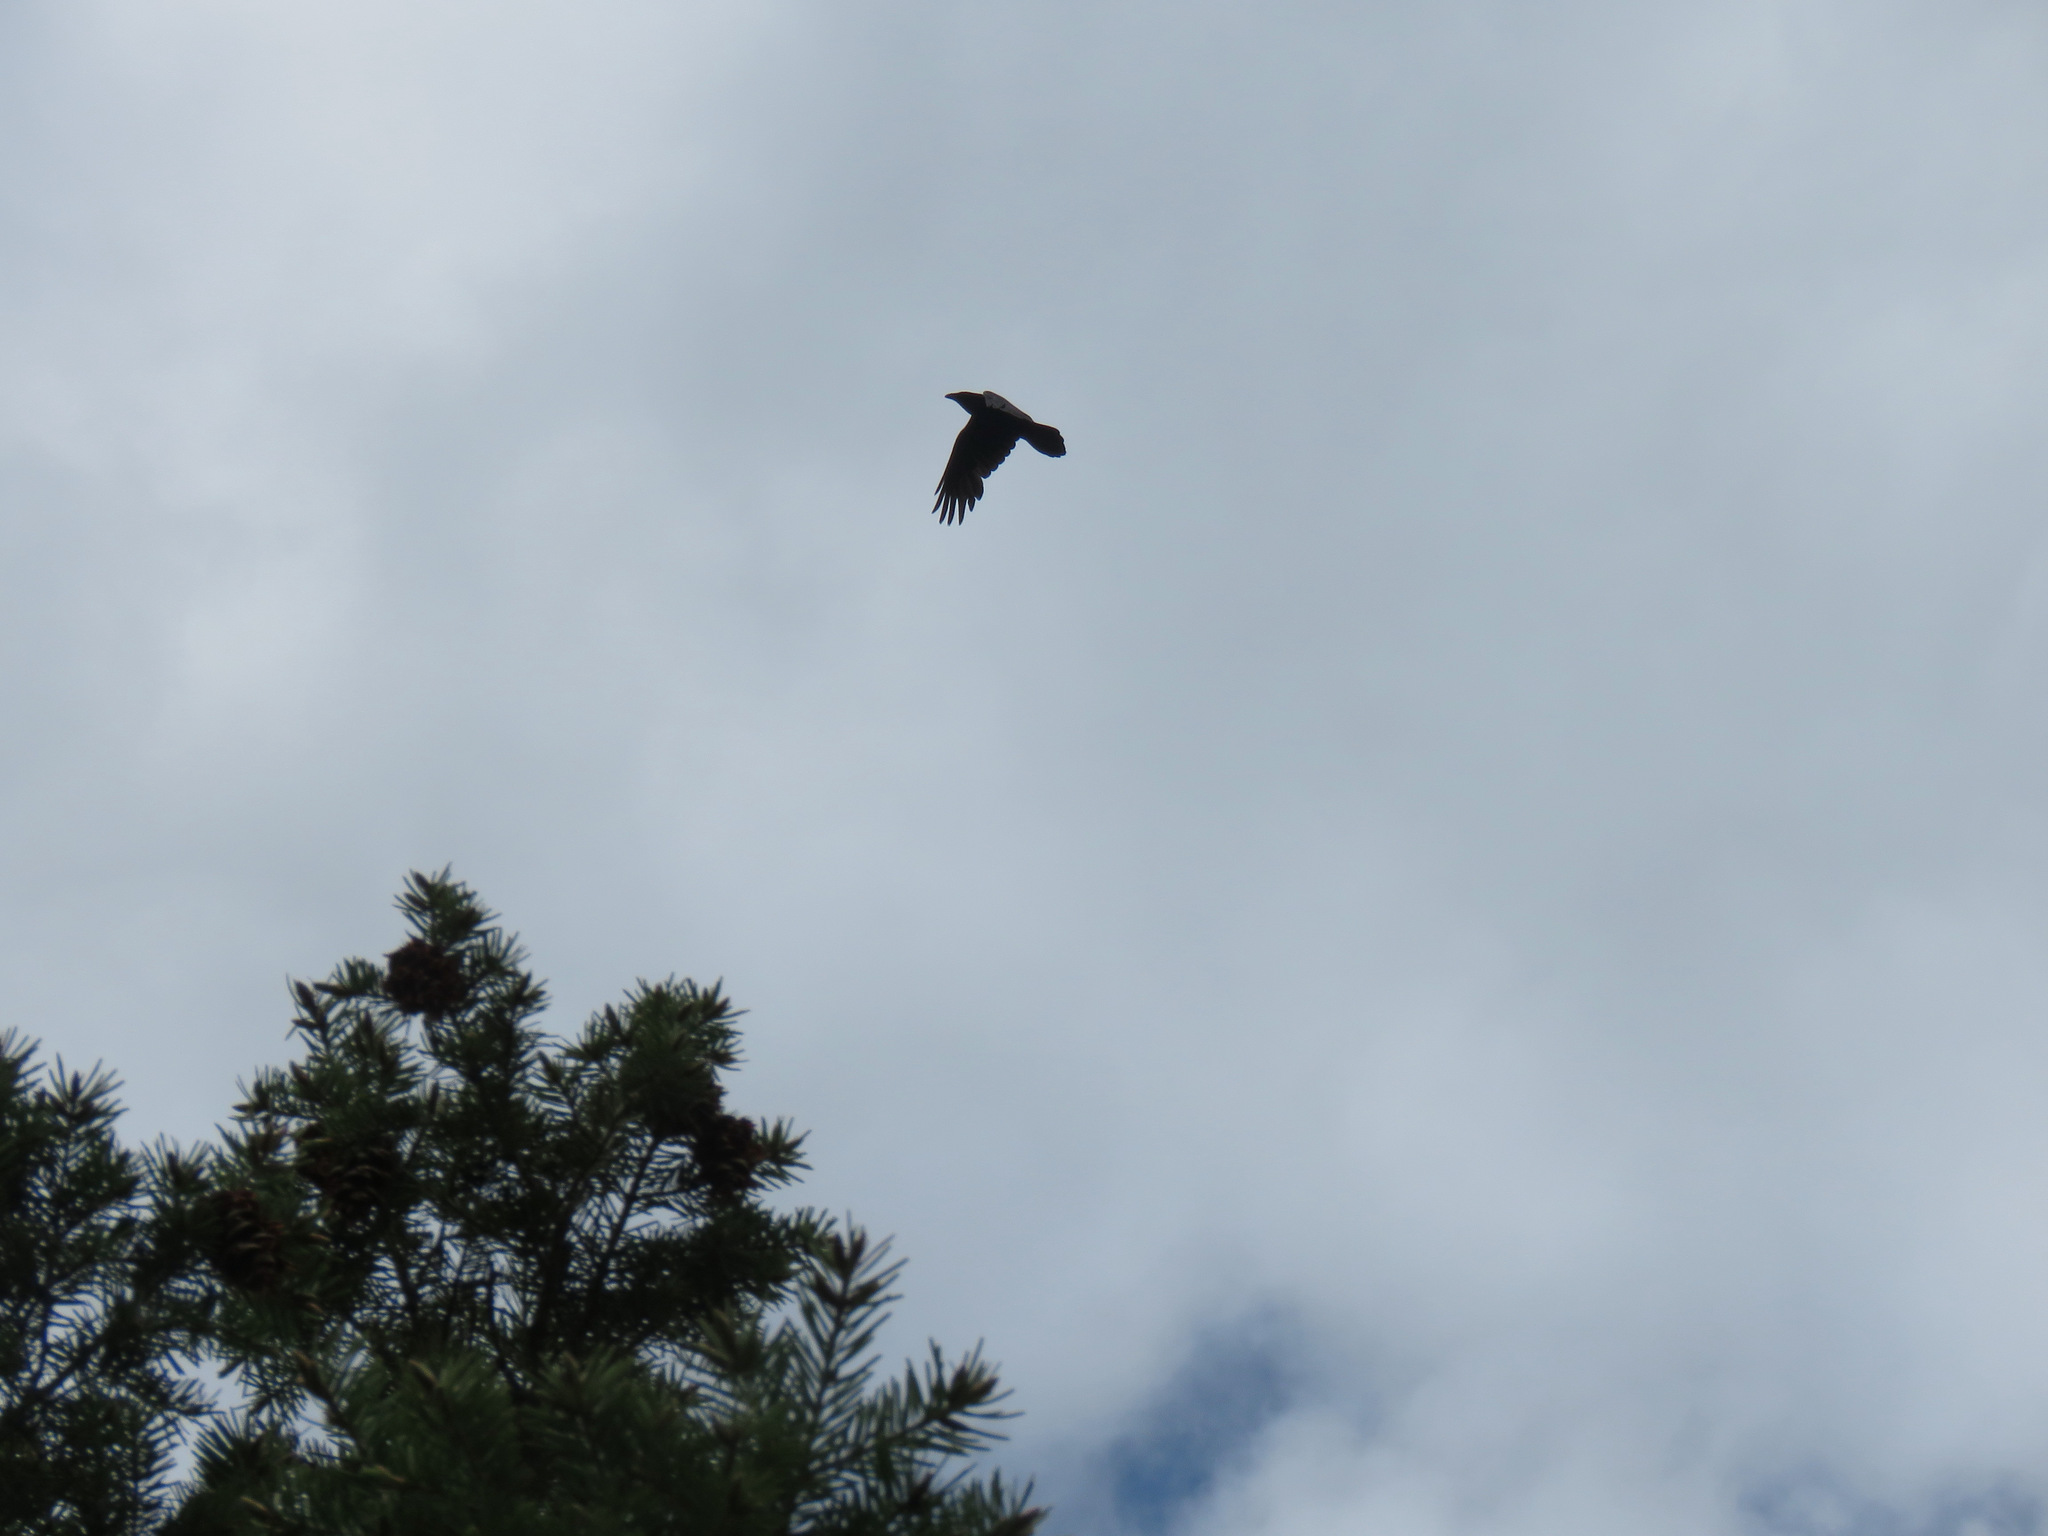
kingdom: Animalia
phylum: Chordata
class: Aves
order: Passeriformes
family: Corvidae
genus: Corvus
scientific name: Corvus corax
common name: Common raven
